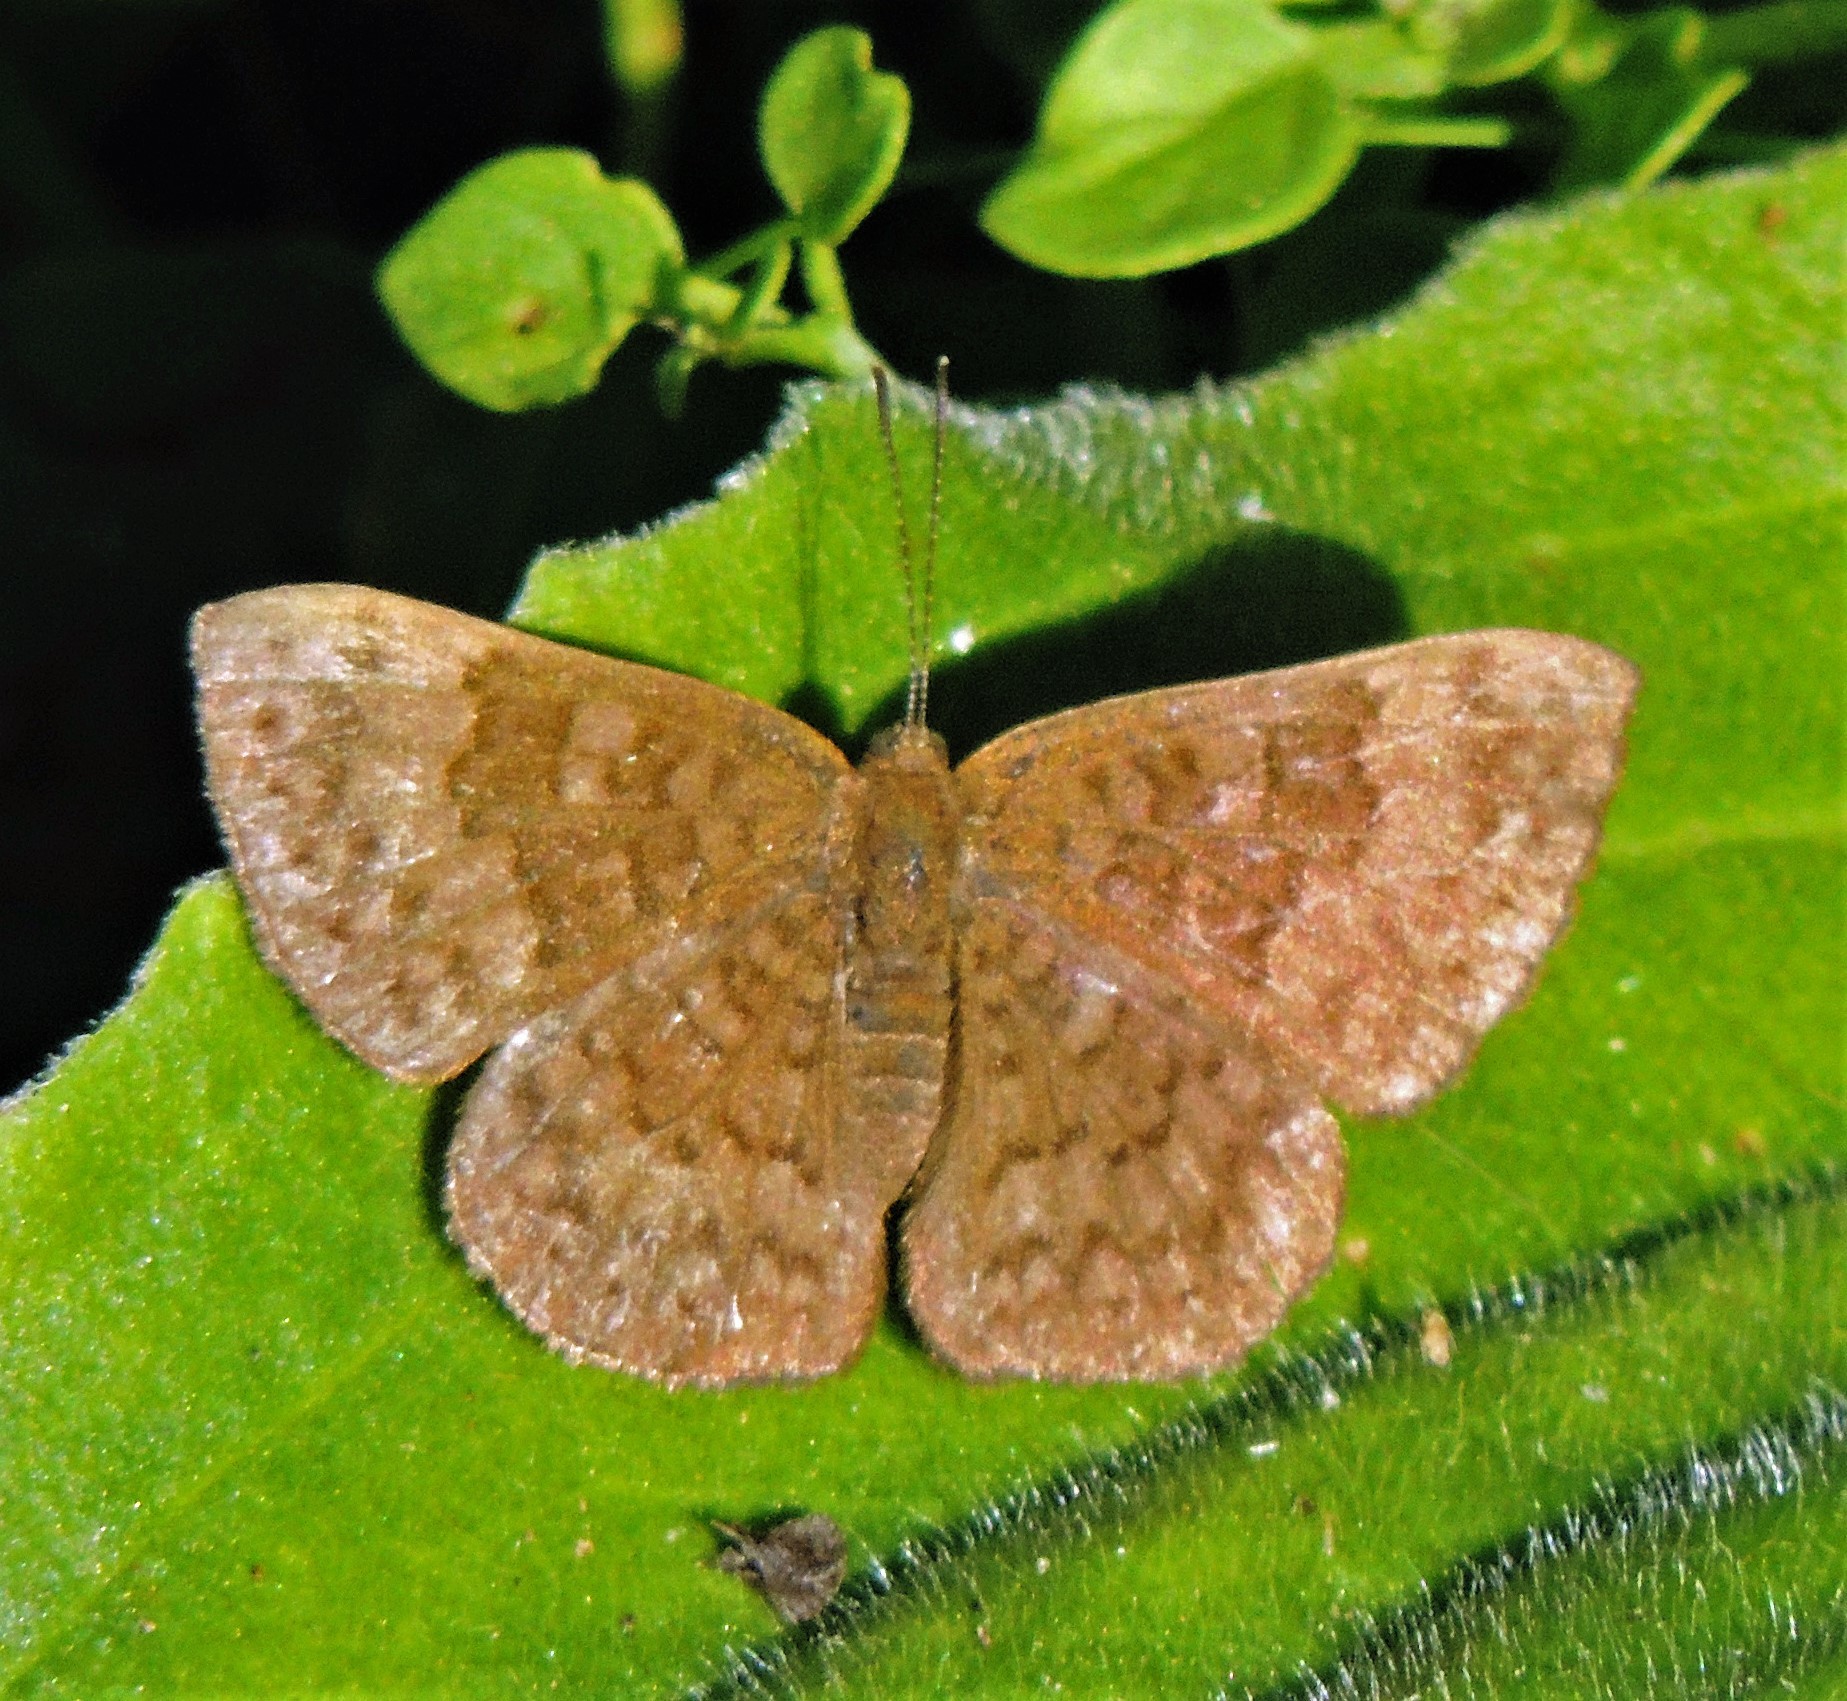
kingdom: Animalia
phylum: Arthropoda
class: Insecta
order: Lepidoptera
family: Lycaenidae
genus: Emesis
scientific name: Emesis russula
